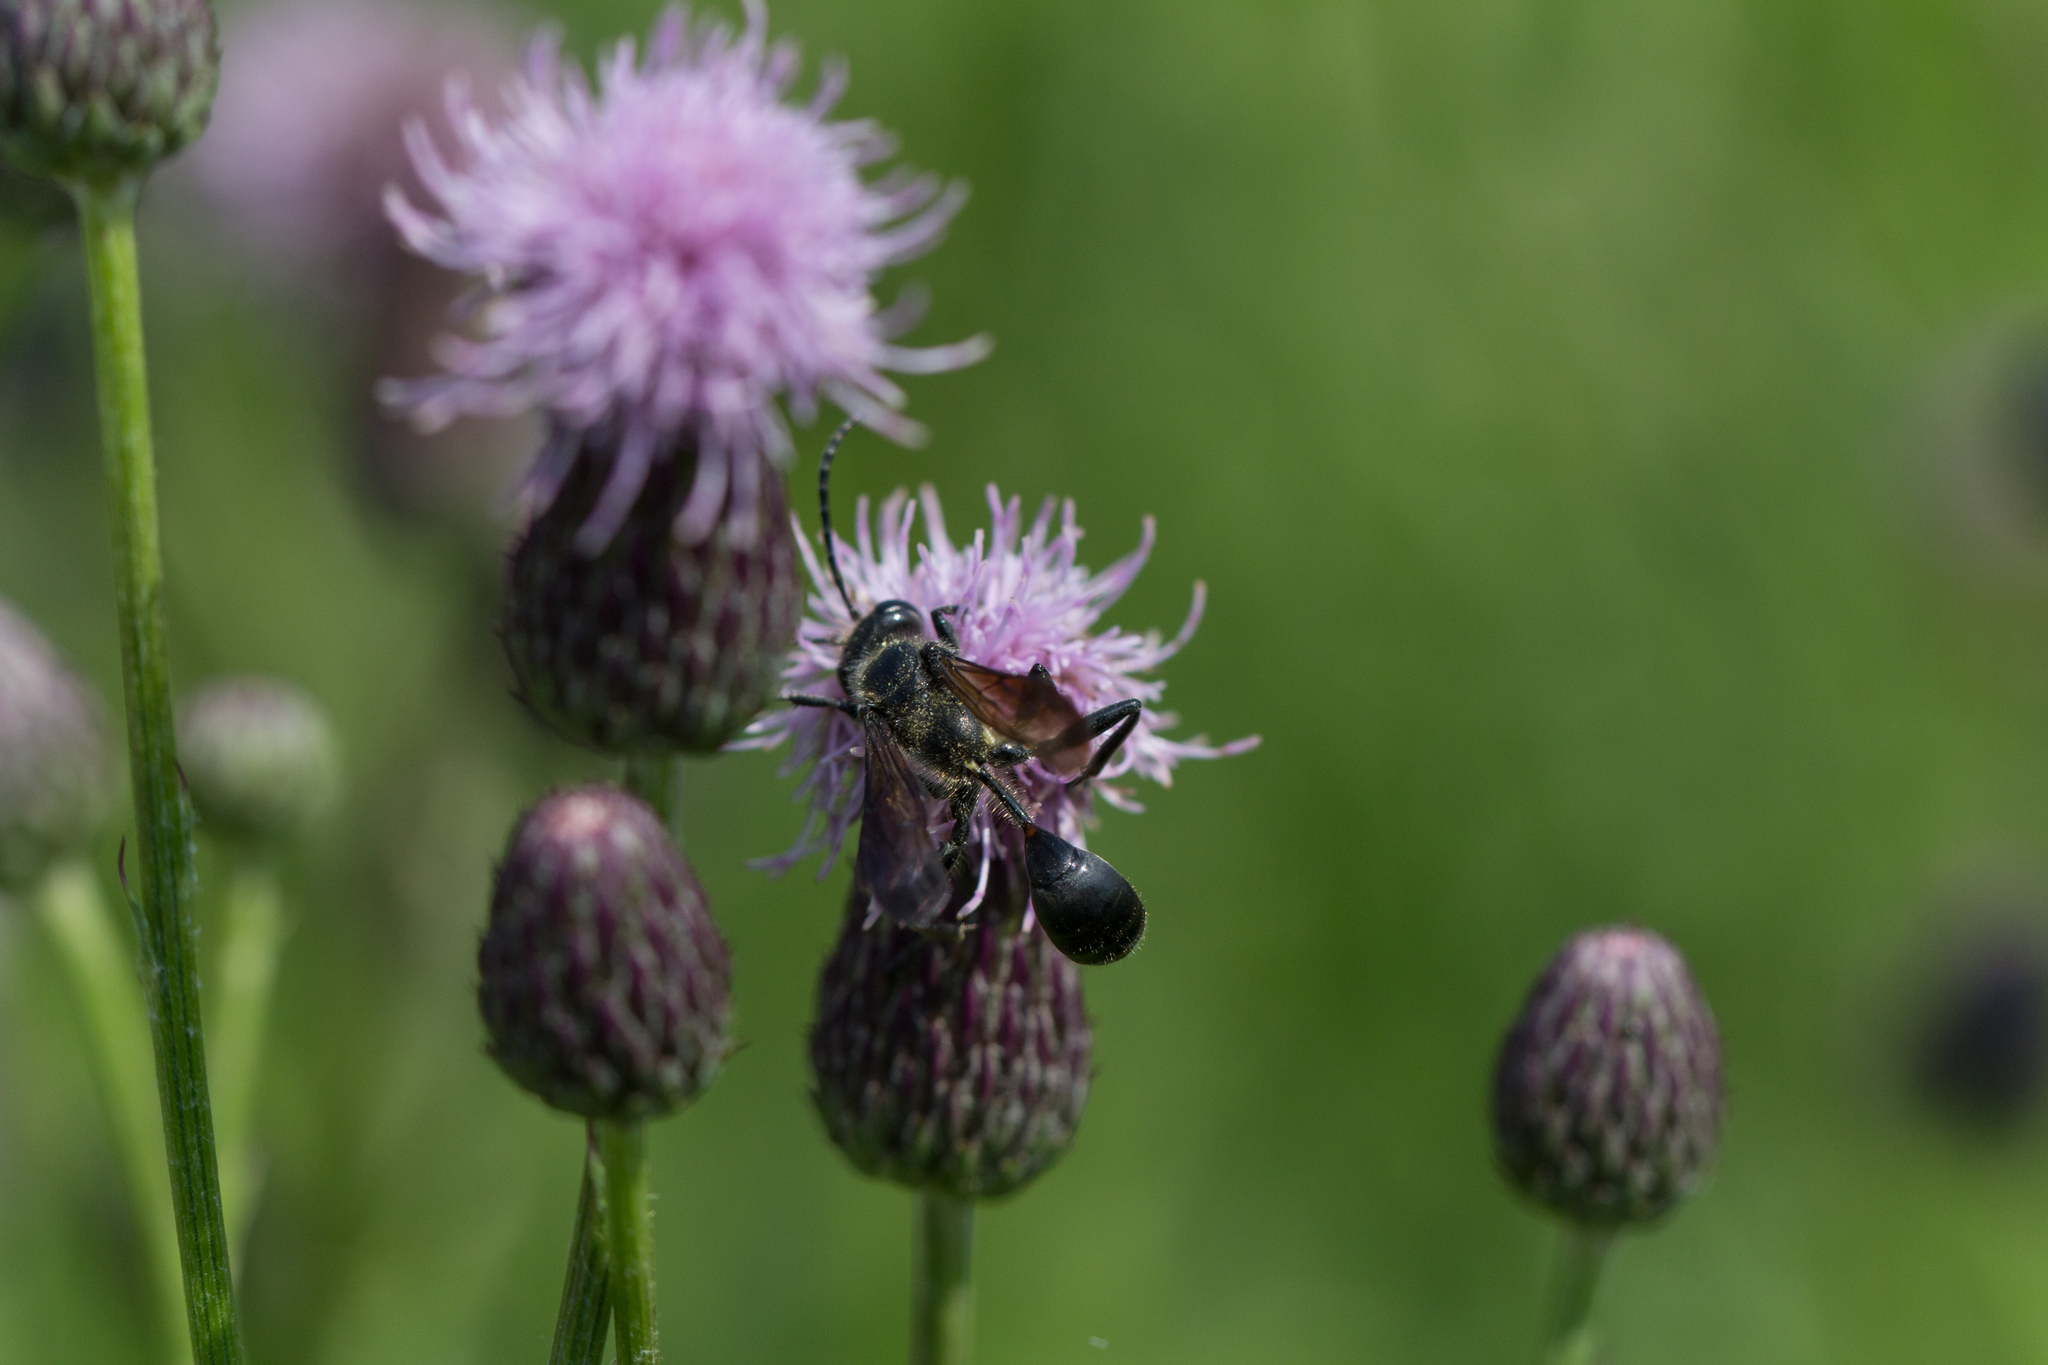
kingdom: Animalia
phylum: Arthropoda
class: Insecta
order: Hymenoptera
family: Sphecidae
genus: Isodontia
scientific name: Isodontia mexicana
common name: Mud dauber
